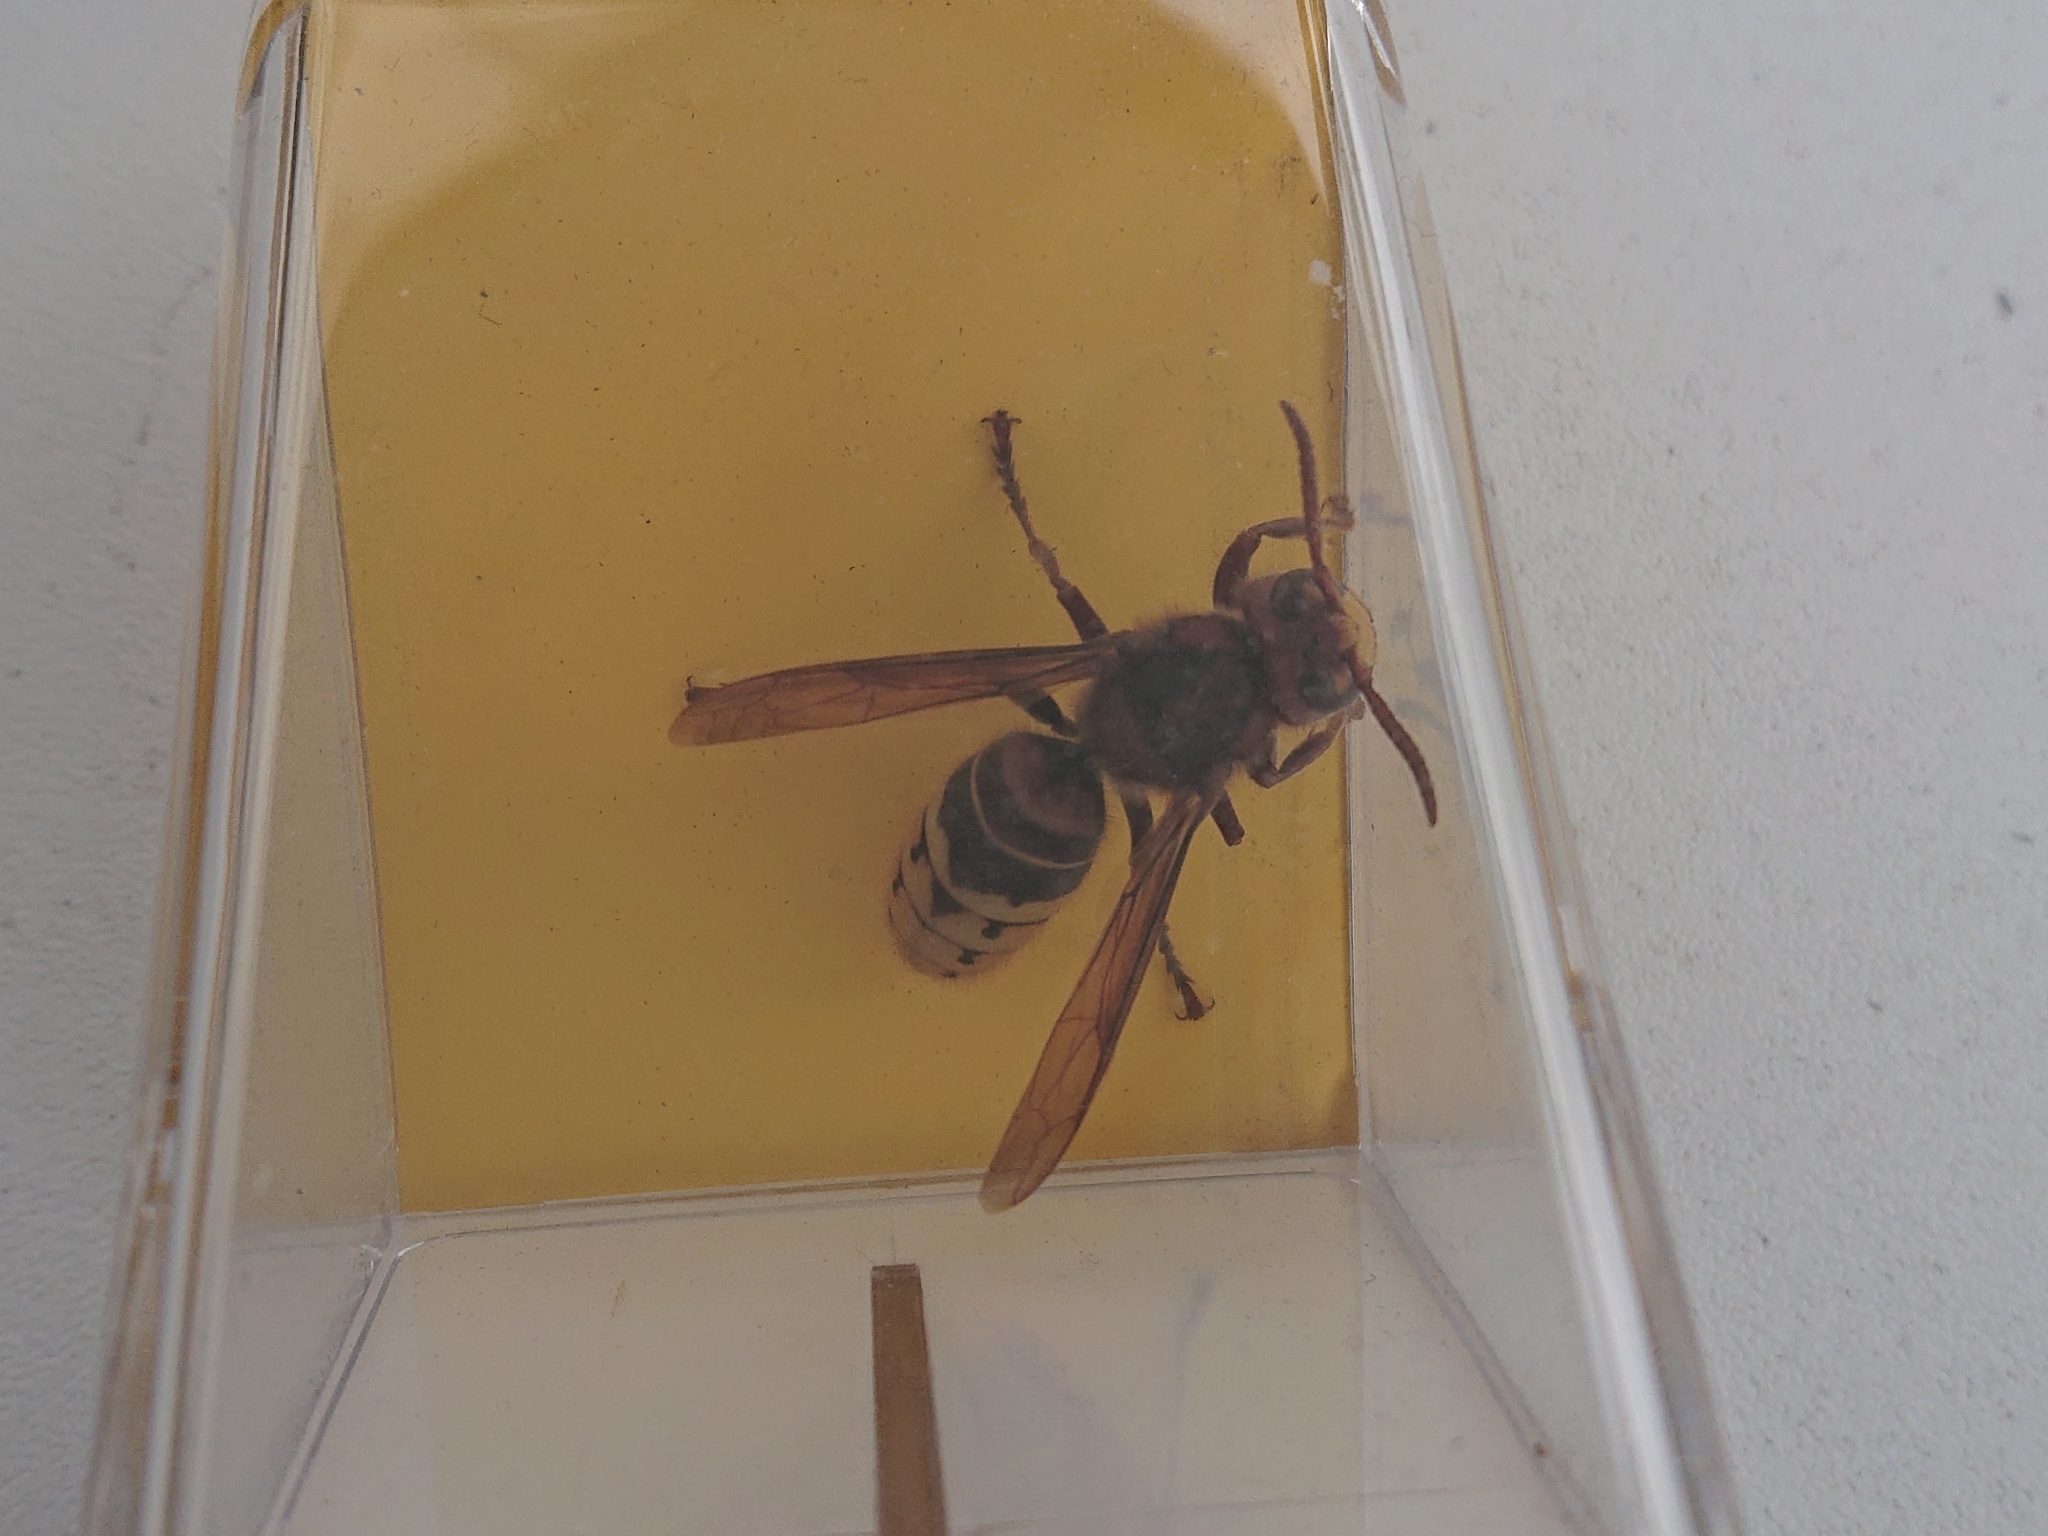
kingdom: Animalia
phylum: Arthropoda
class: Insecta
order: Hymenoptera
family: Vespidae
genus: Vespa
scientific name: Vespa crabro
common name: Hornet
